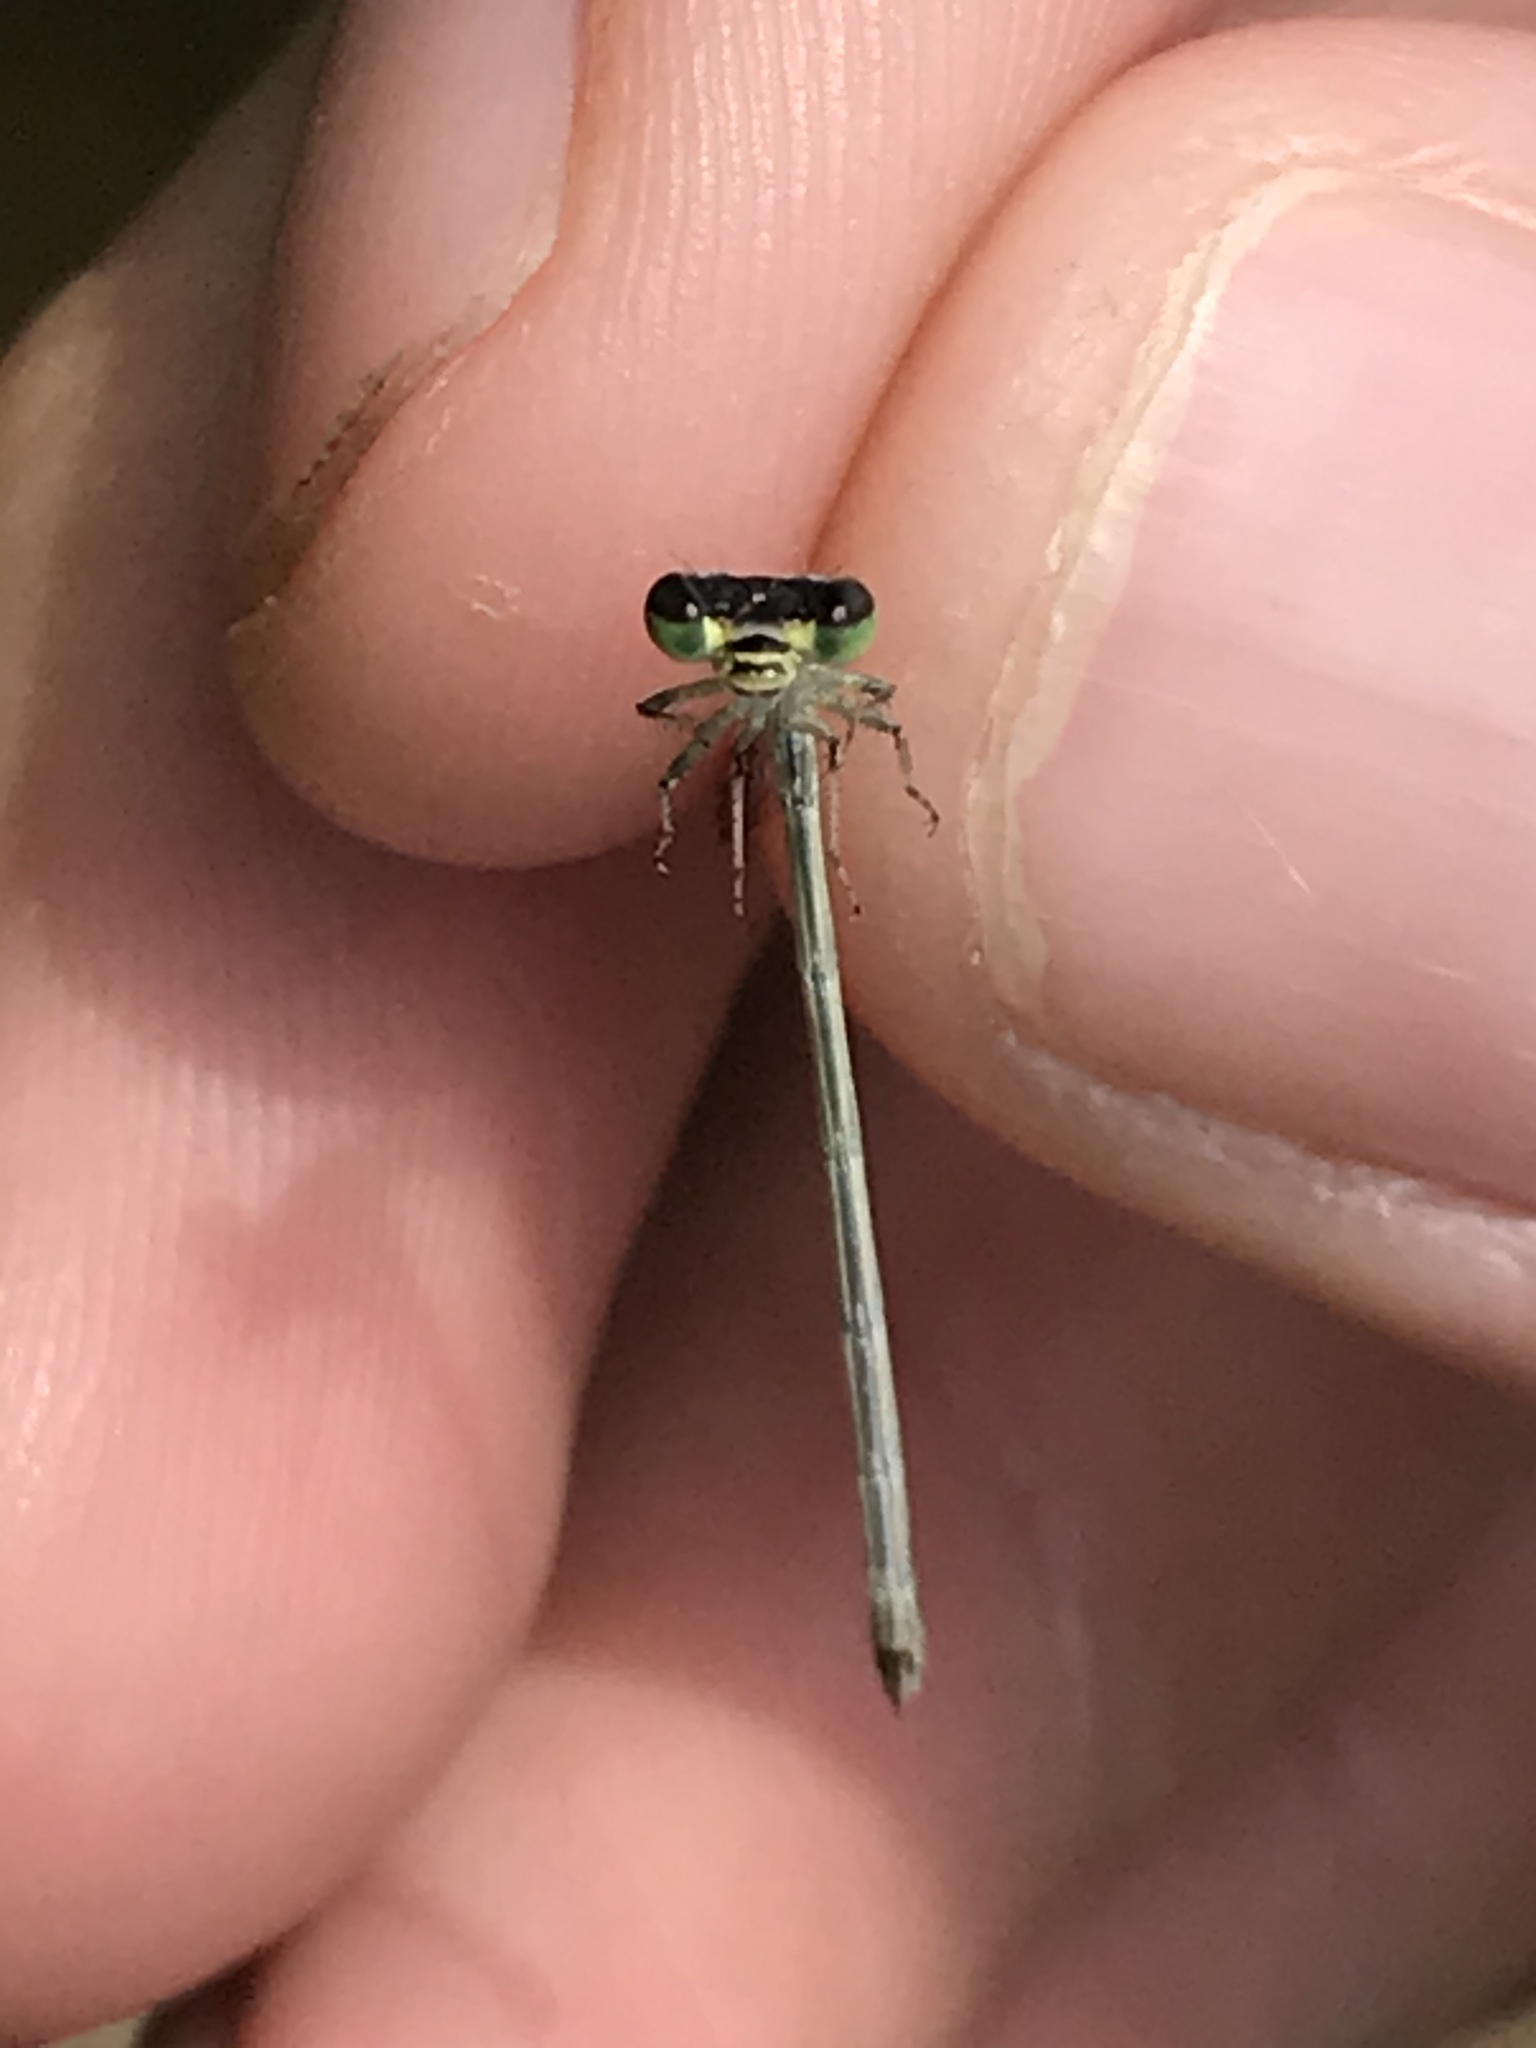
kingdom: Animalia
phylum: Arthropoda
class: Insecta
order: Odonata
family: Coenagrionidae
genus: Ischnura
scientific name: Ischnura posita
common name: Fragile forktail
